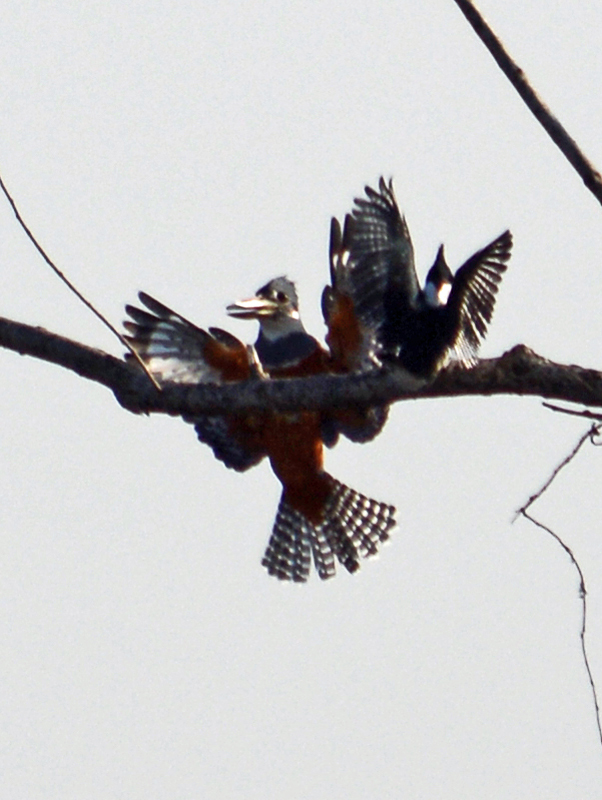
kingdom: Animalia
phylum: Chordata
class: Aves
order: Coraciiformes
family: Alcedinidae
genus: Megaceryle
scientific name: Megaceryle torquata
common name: Ringed kingfisher
